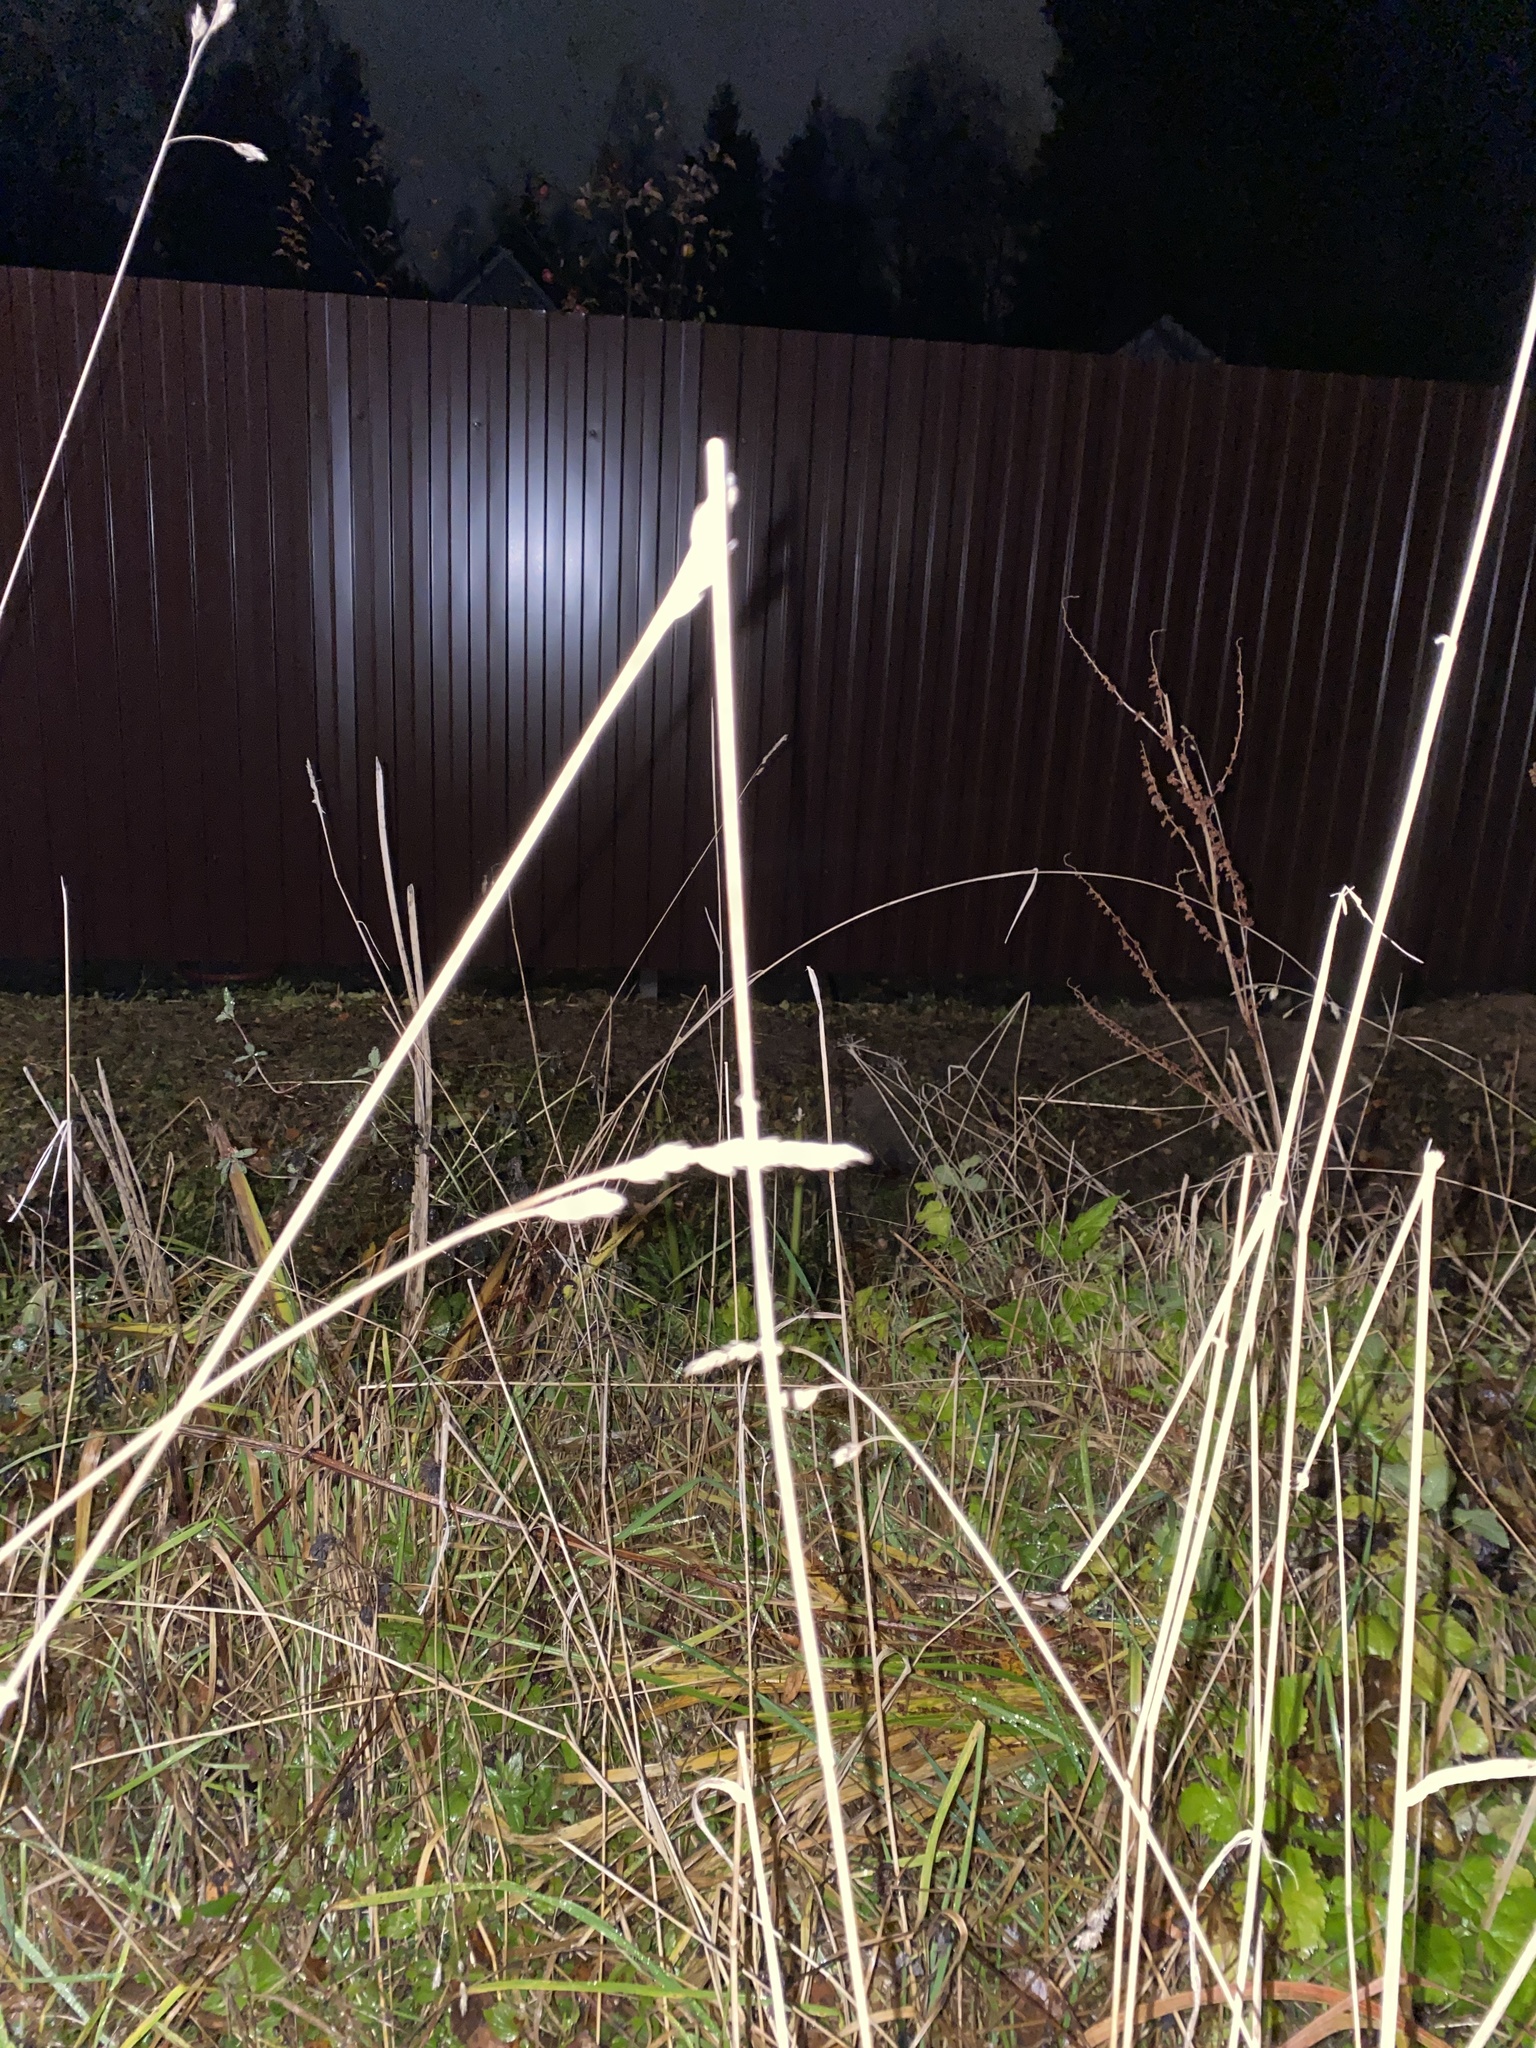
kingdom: Plantae
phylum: Tracheophyta
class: Liliopsida
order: Poales
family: Poaceae
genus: Dactylis
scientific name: Dactylis glomerata
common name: Orchardgrass
